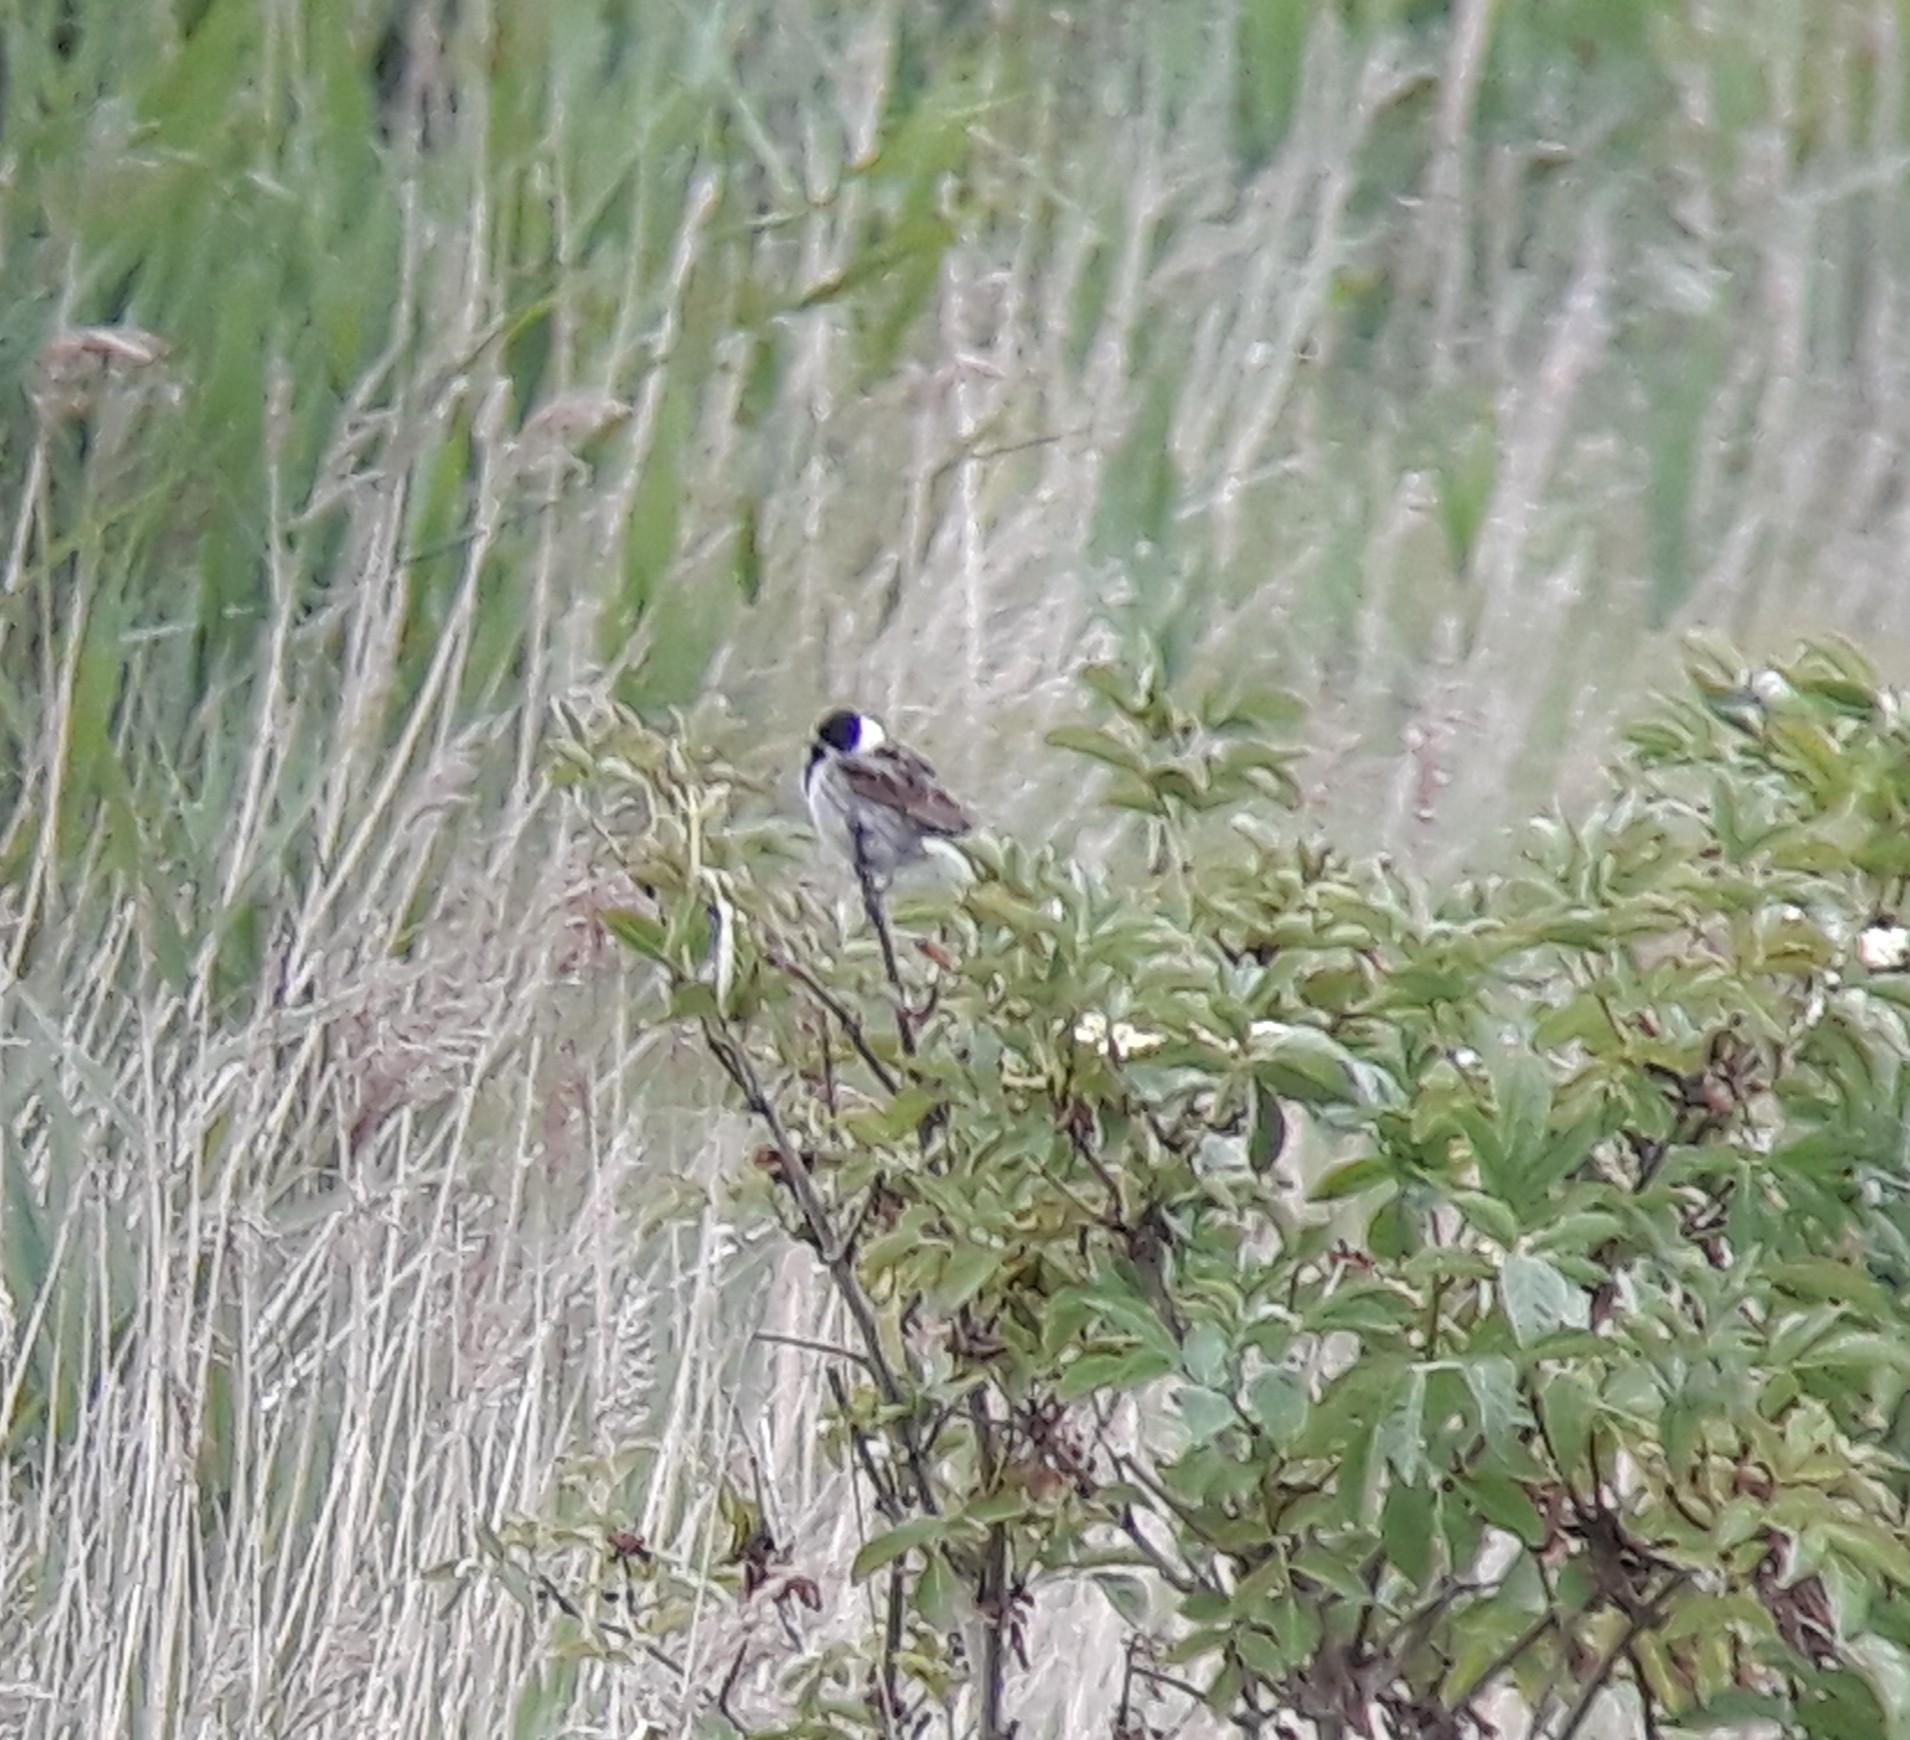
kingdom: Animalia
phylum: Chordata
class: Aves
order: Passeriformes
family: Emberizidae
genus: Emberiza
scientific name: Emberiza schoeniclus
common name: Reed bunting
